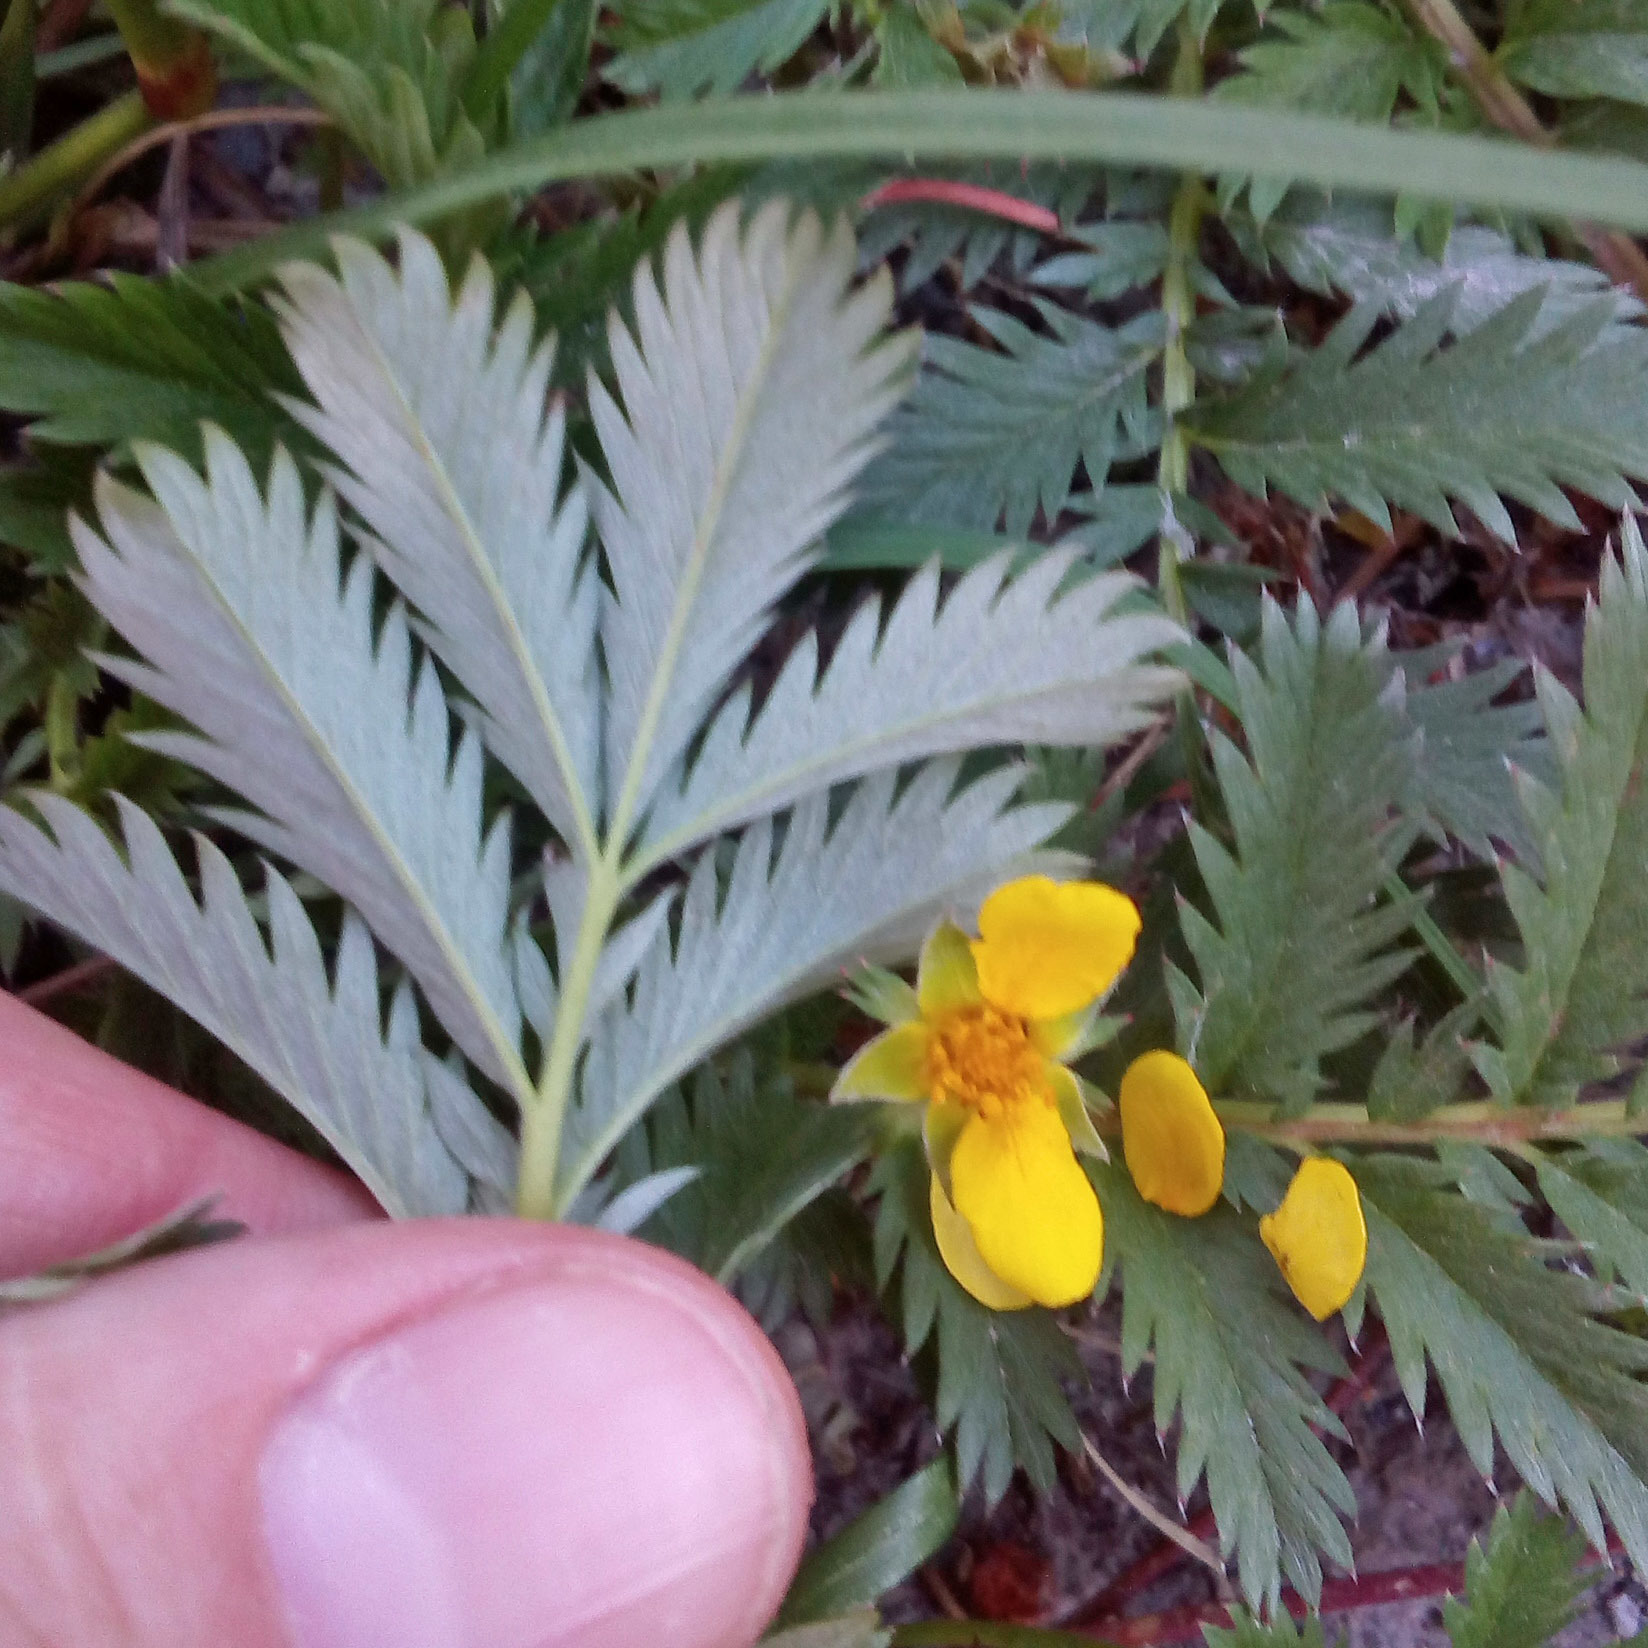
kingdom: Plantae
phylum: Tracheophyta
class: Magnoliopsida
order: Rosales
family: Rosaceae
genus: Argentina
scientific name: Argentina anserina
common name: Common silverweed
